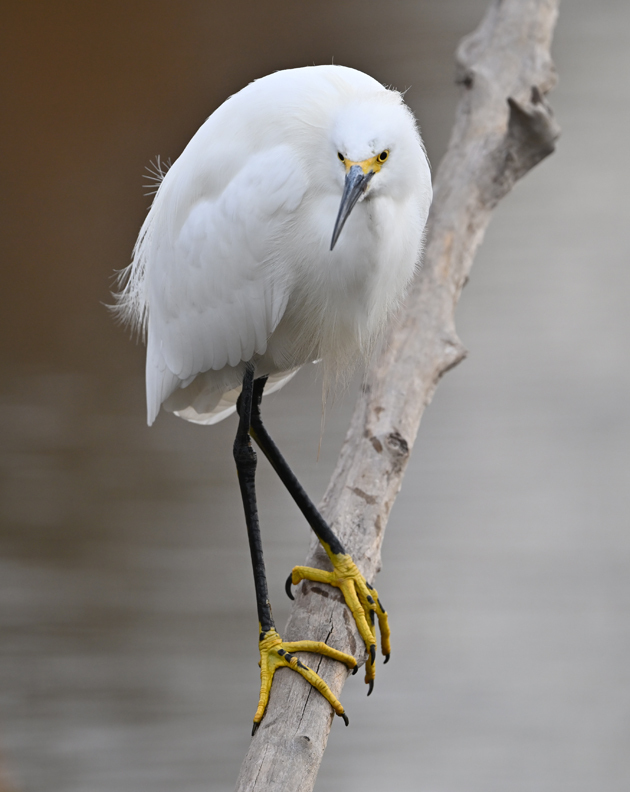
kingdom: Animalia
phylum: Chordata
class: Aves
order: Pelecaniformes
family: Ardeidae
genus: Egretta
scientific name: Egretta thula
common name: Snowy egret
